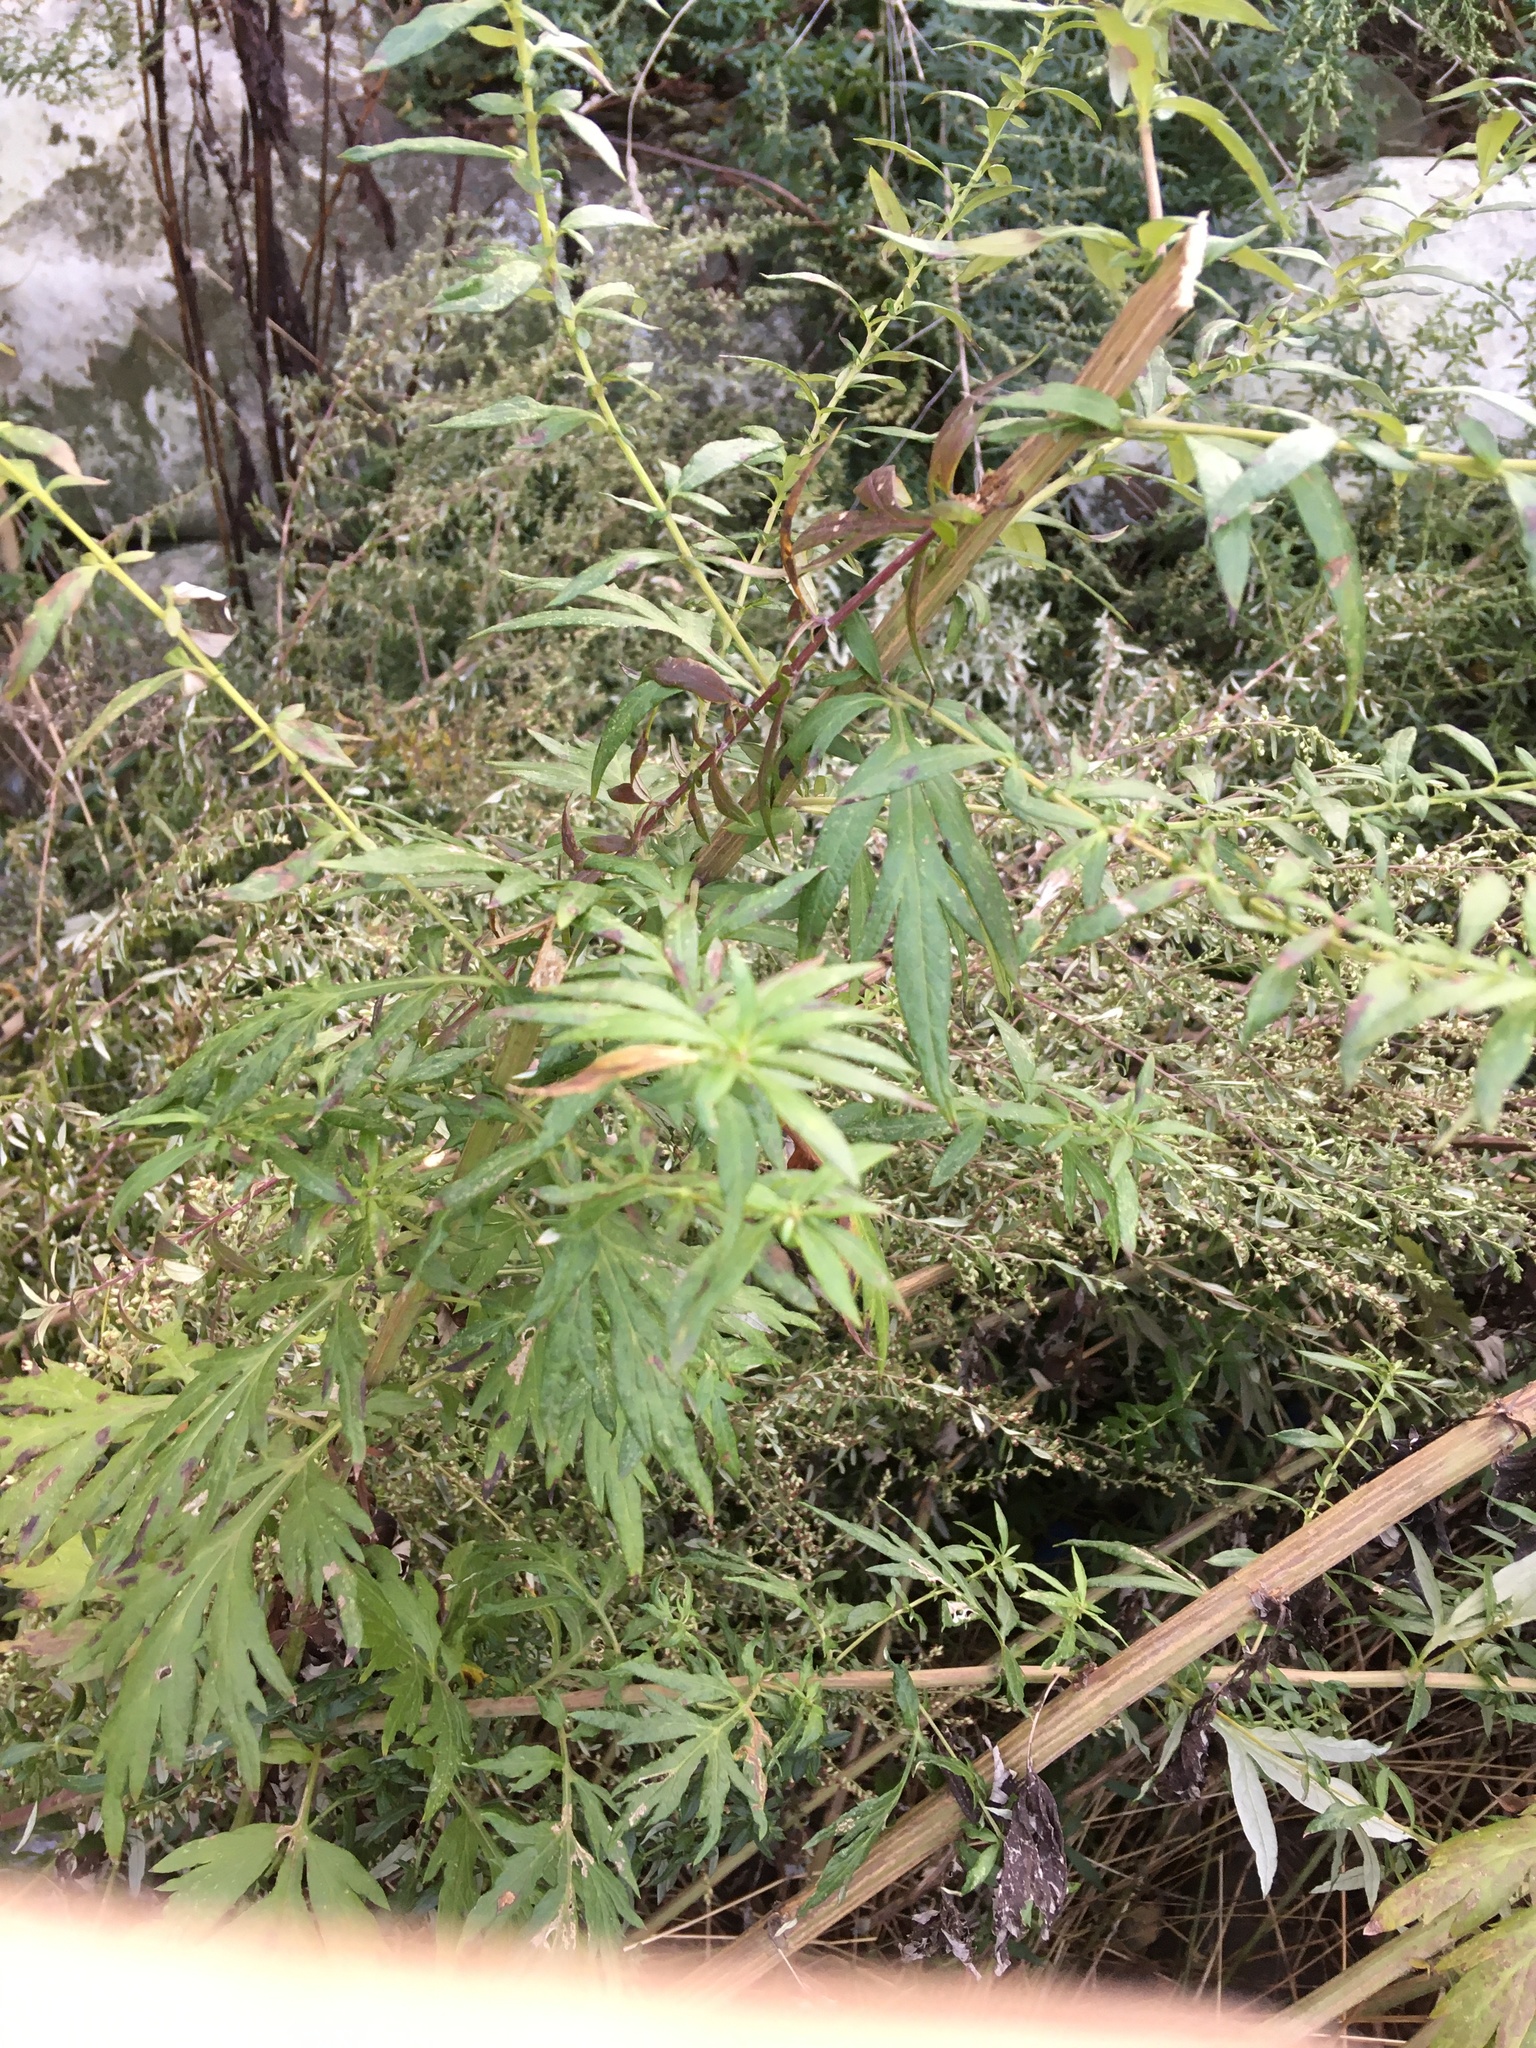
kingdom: Plantae
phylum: Tracheophyta
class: Magnoliopsida
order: Asterales
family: Asteraceae
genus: Artemisia
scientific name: Artemisia vulgaris
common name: Mugwort
